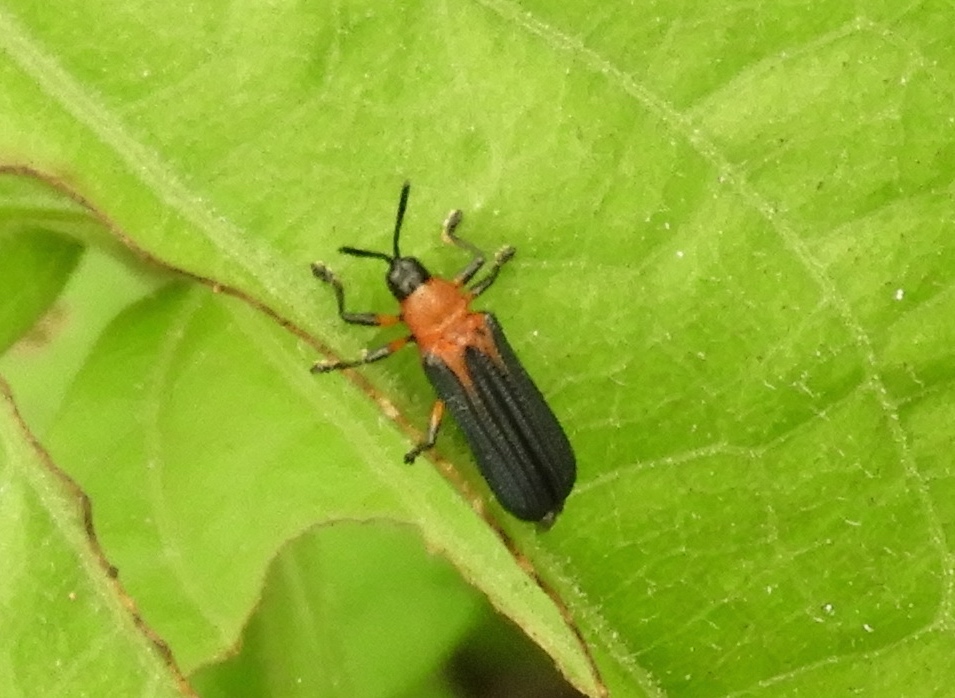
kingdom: Animalia
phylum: Arthropoda
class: Insecta
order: Coleoptera
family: Chrysomelidae
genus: Chalepus
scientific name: Chalepus bellulus
